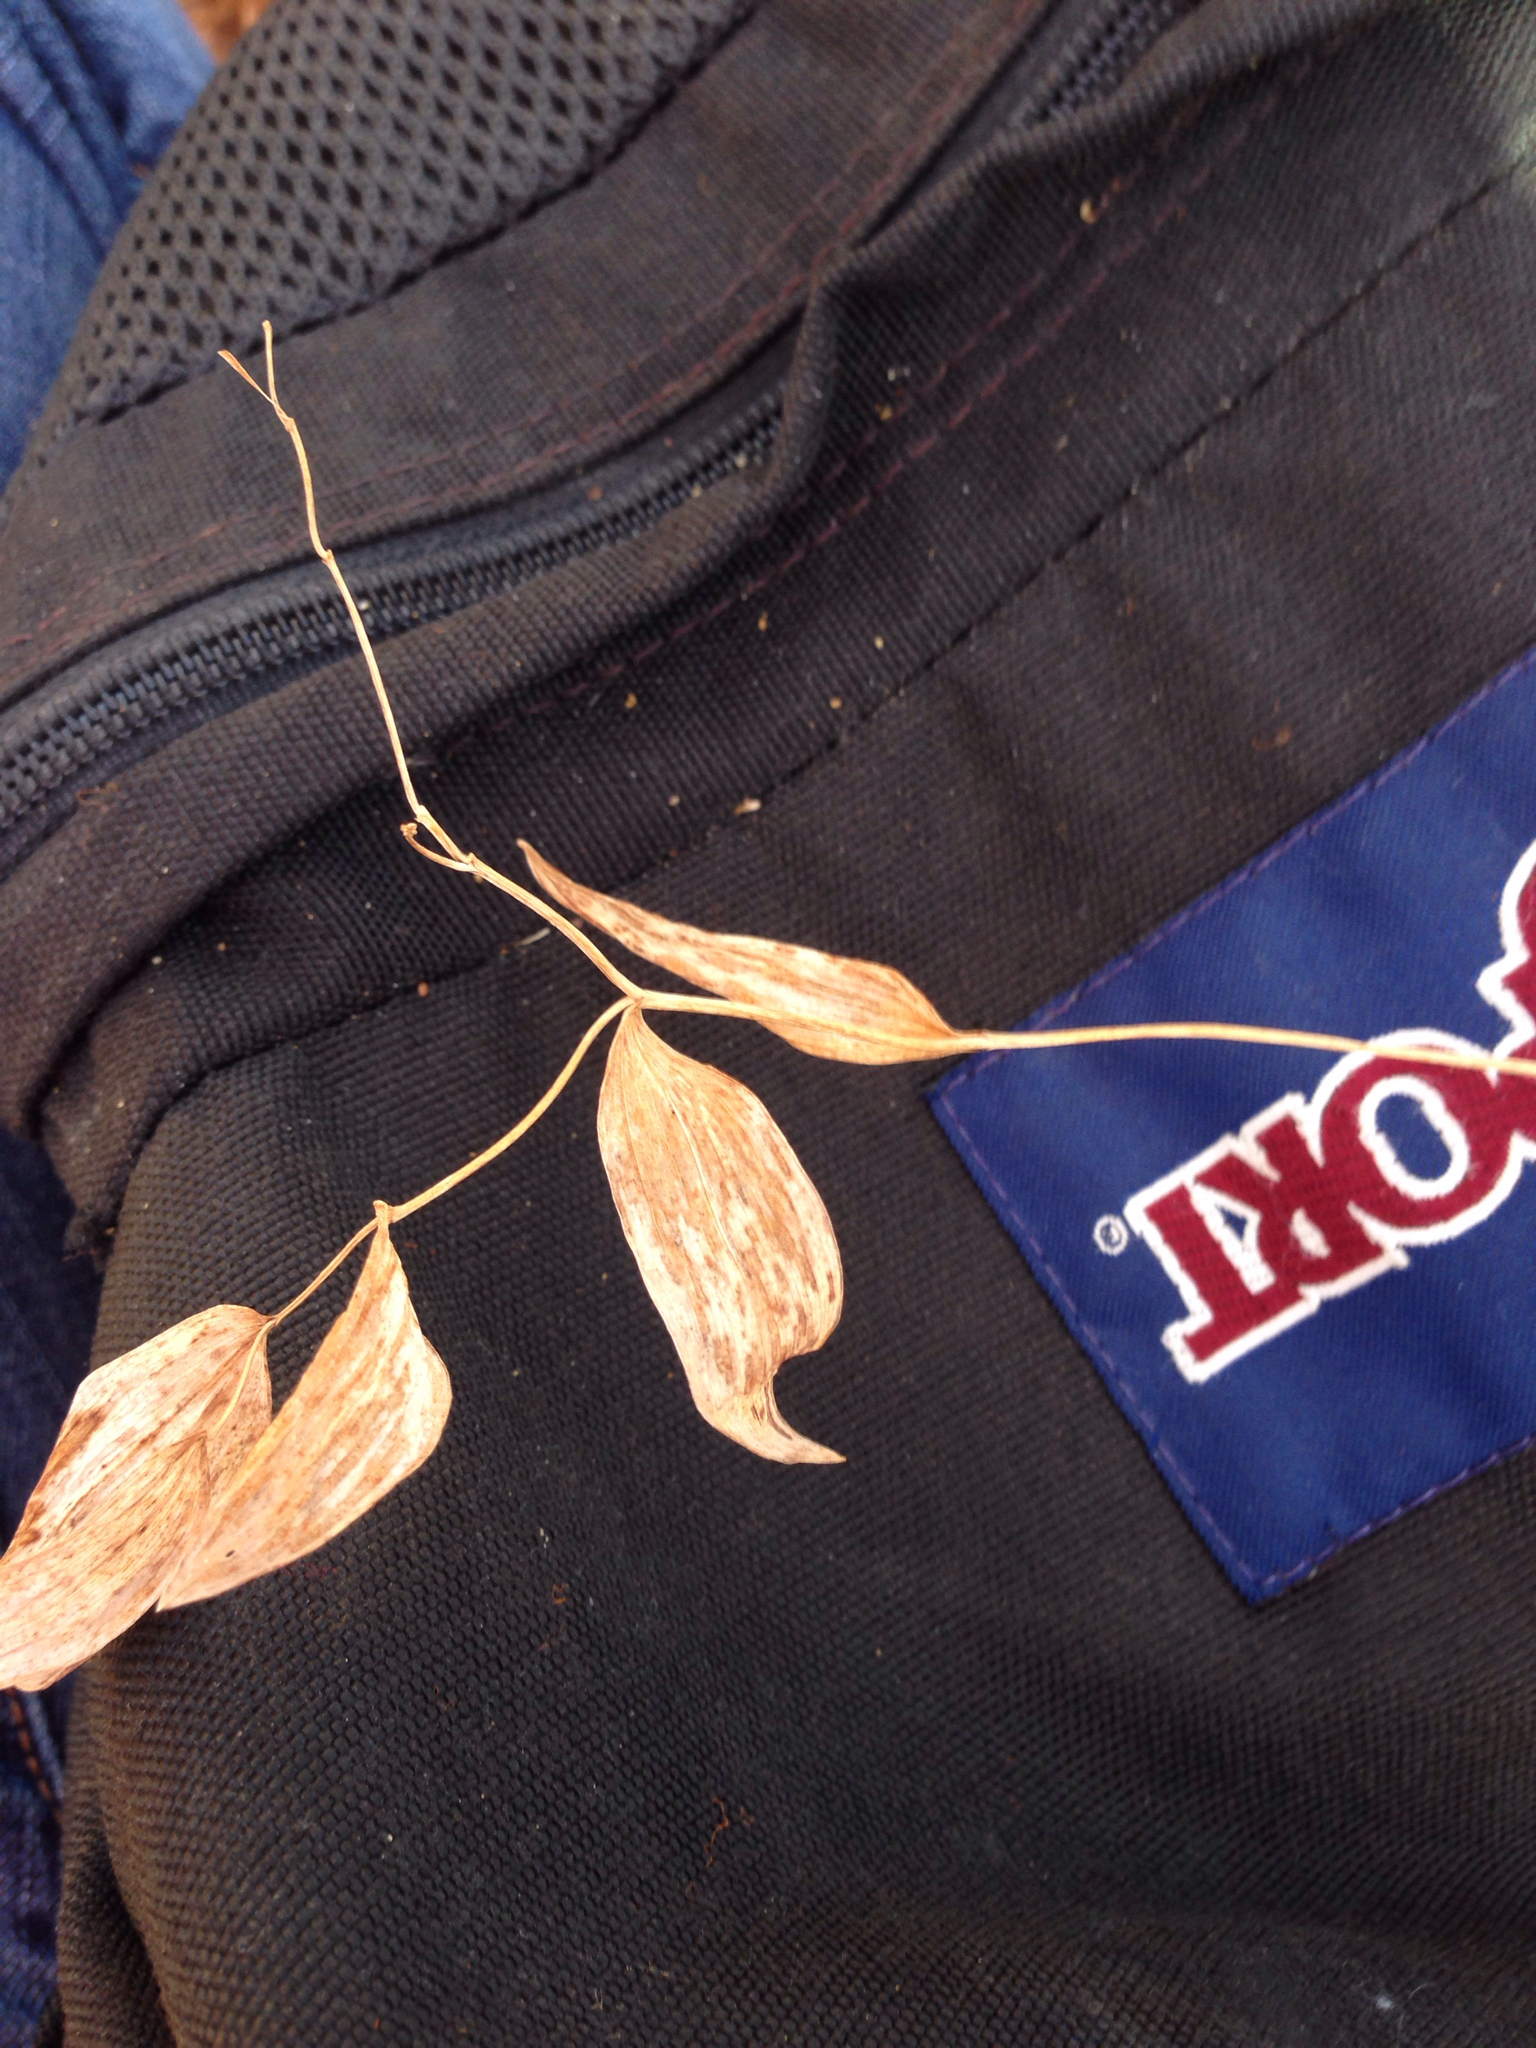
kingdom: Plantae
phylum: Tracheophyta
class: Liliopsida
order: Liliales
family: Colchicaceae
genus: Uvularia
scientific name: Uvularia sessilifolia
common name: Straw-lily
